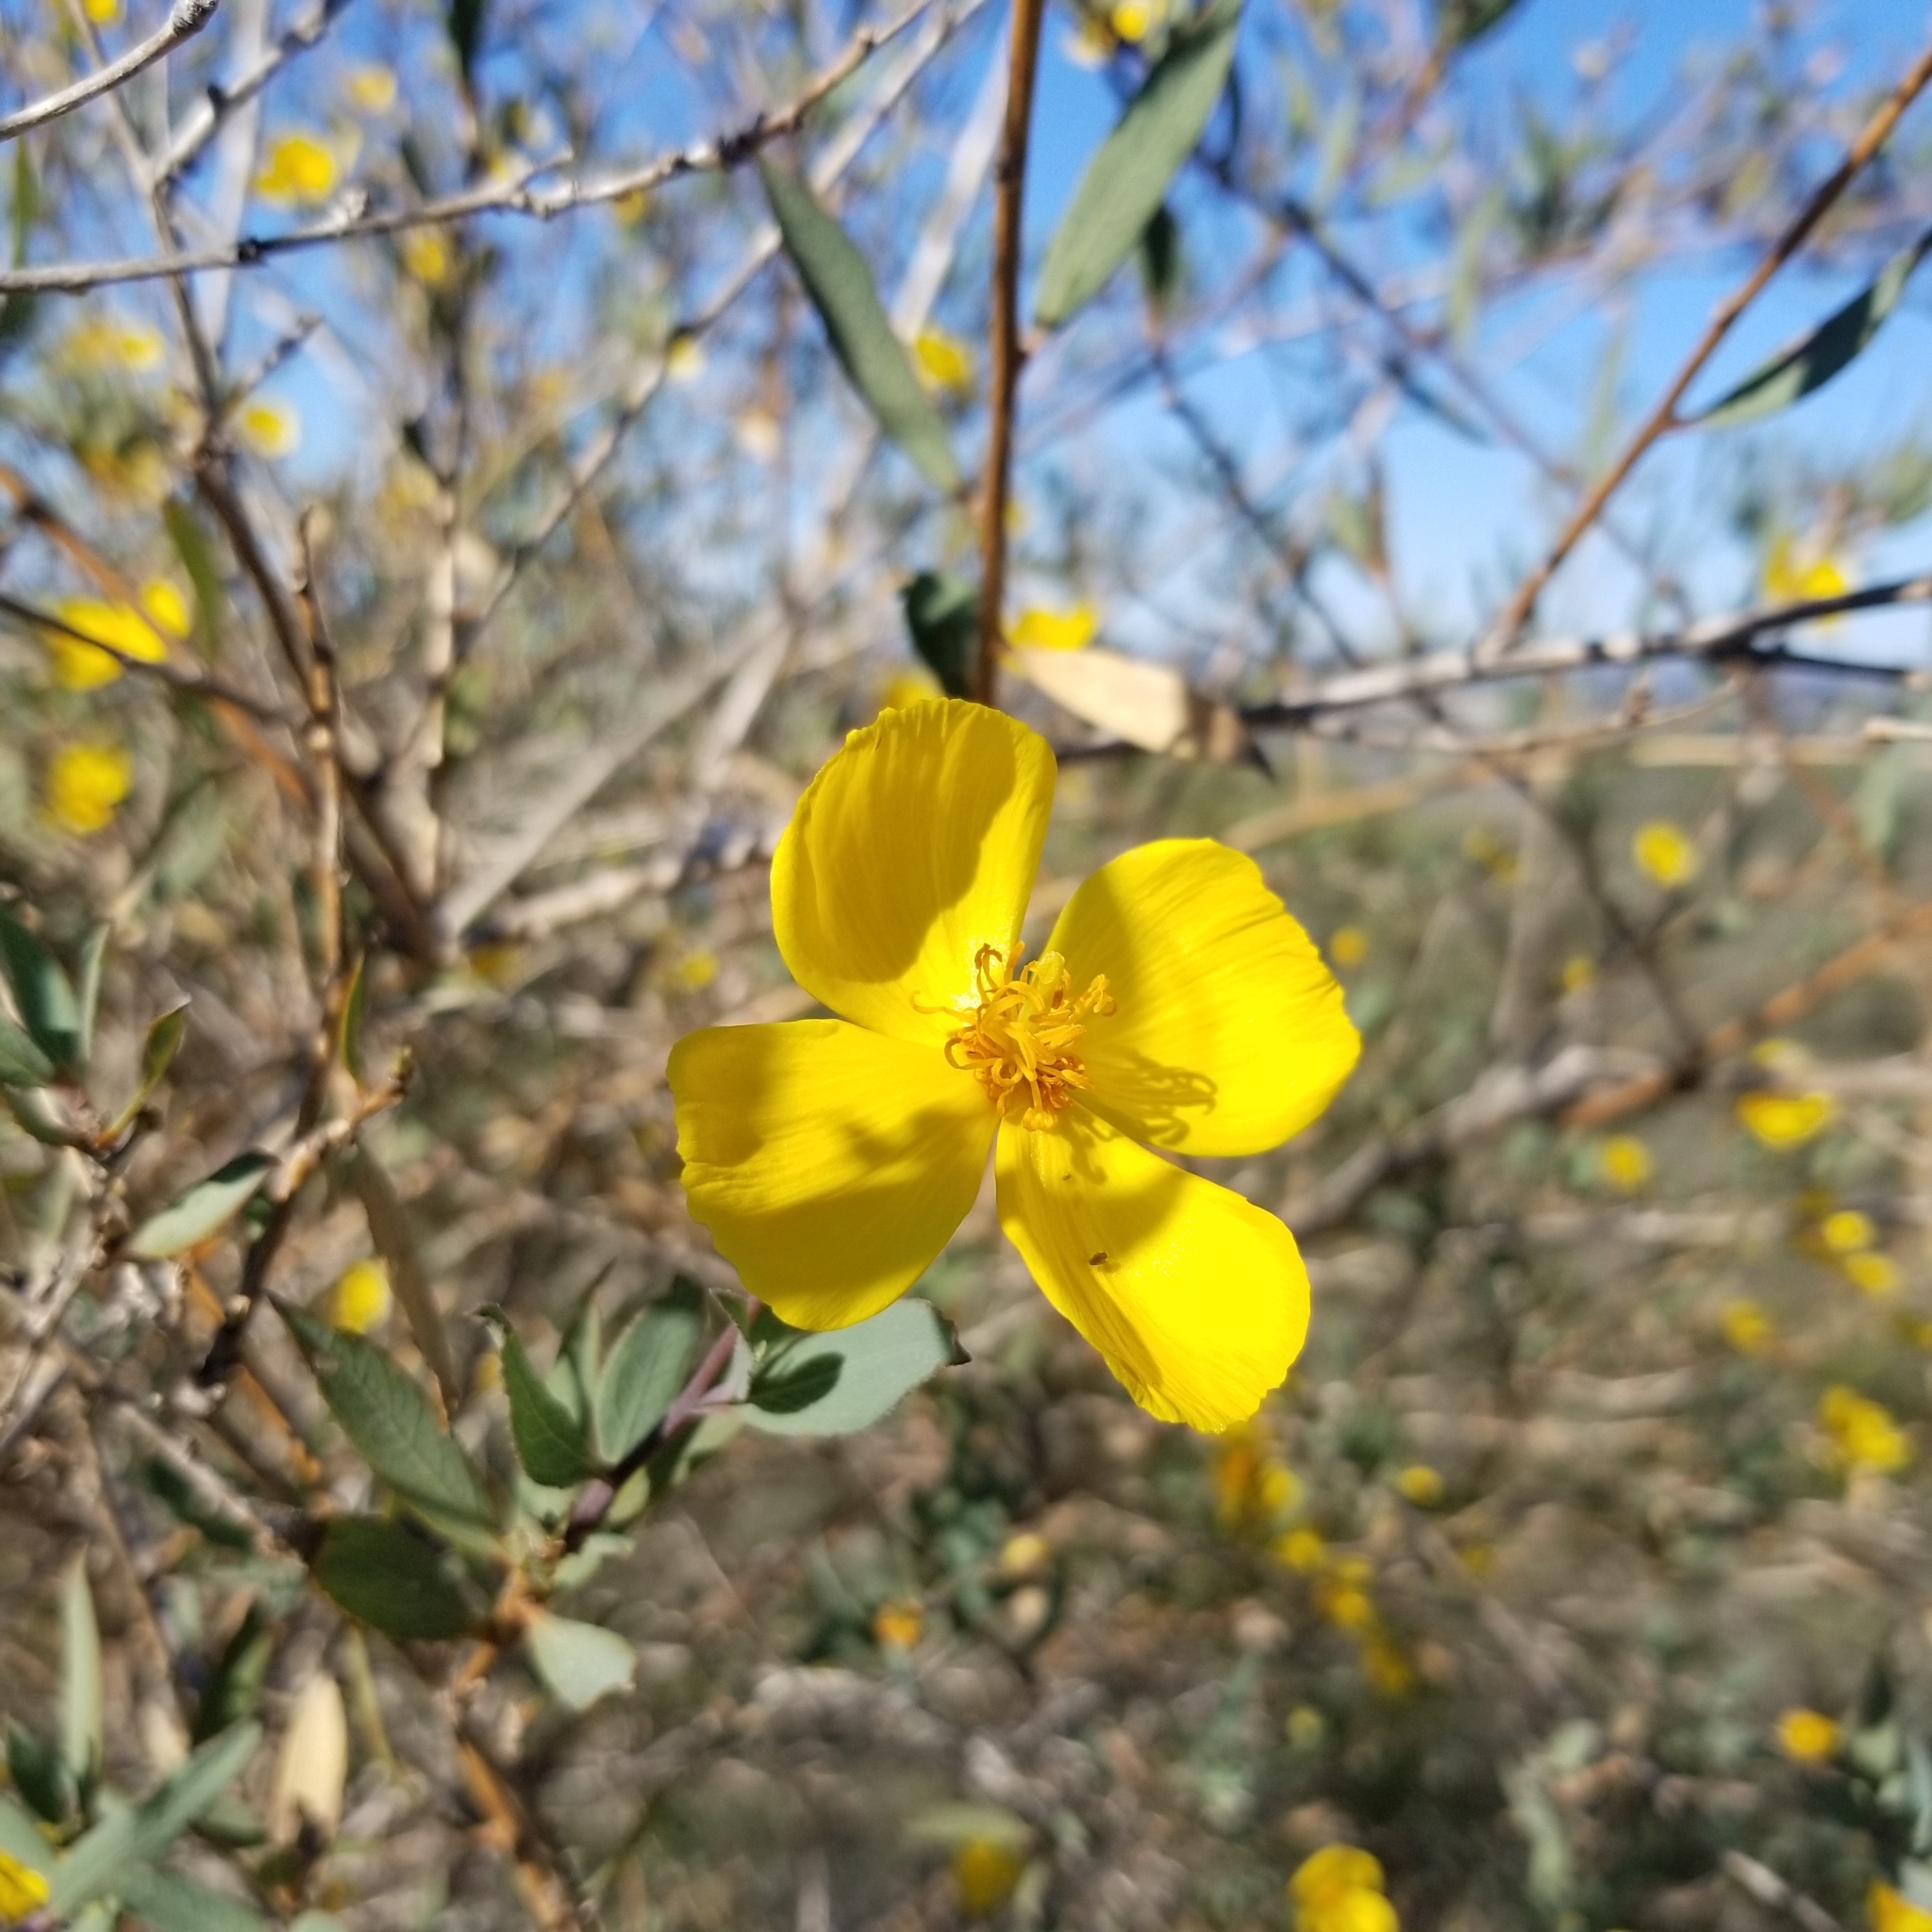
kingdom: Plantae
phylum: Tracheophyta
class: Magnoliopsida
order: Ranunculales
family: Papaveraceae
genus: Dendromecon
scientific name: Dendromecon rigida
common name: Tree poppy
